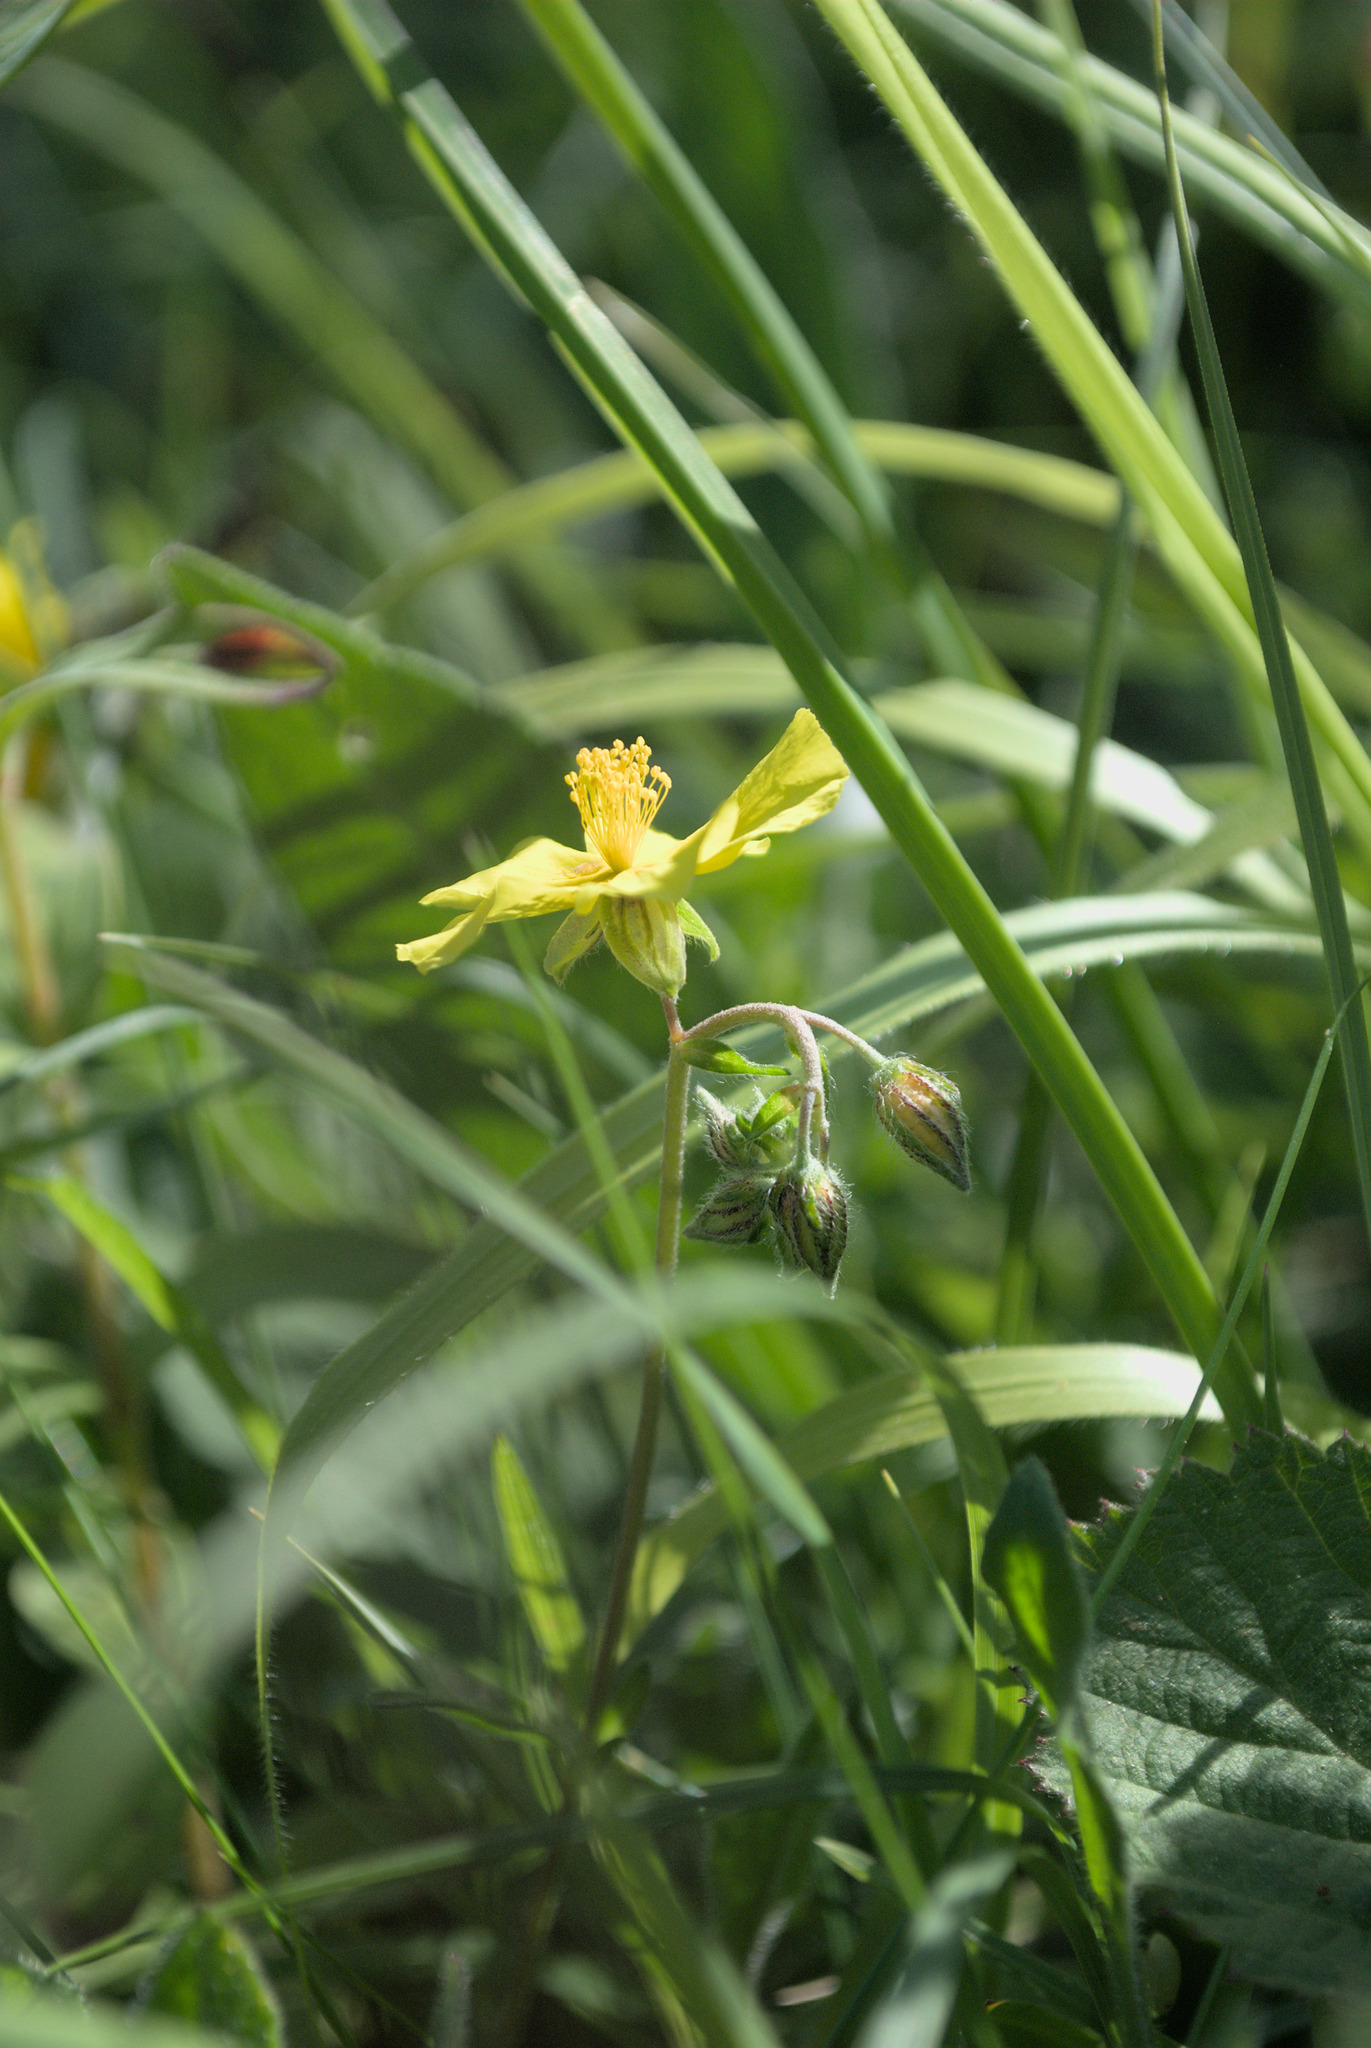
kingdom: Plantae
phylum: Tracheophyta
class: Magnoliopsida
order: Malvales
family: Cistaceae
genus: Helianthemum
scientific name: Helianthemum nummularium
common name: Common rock-rose
